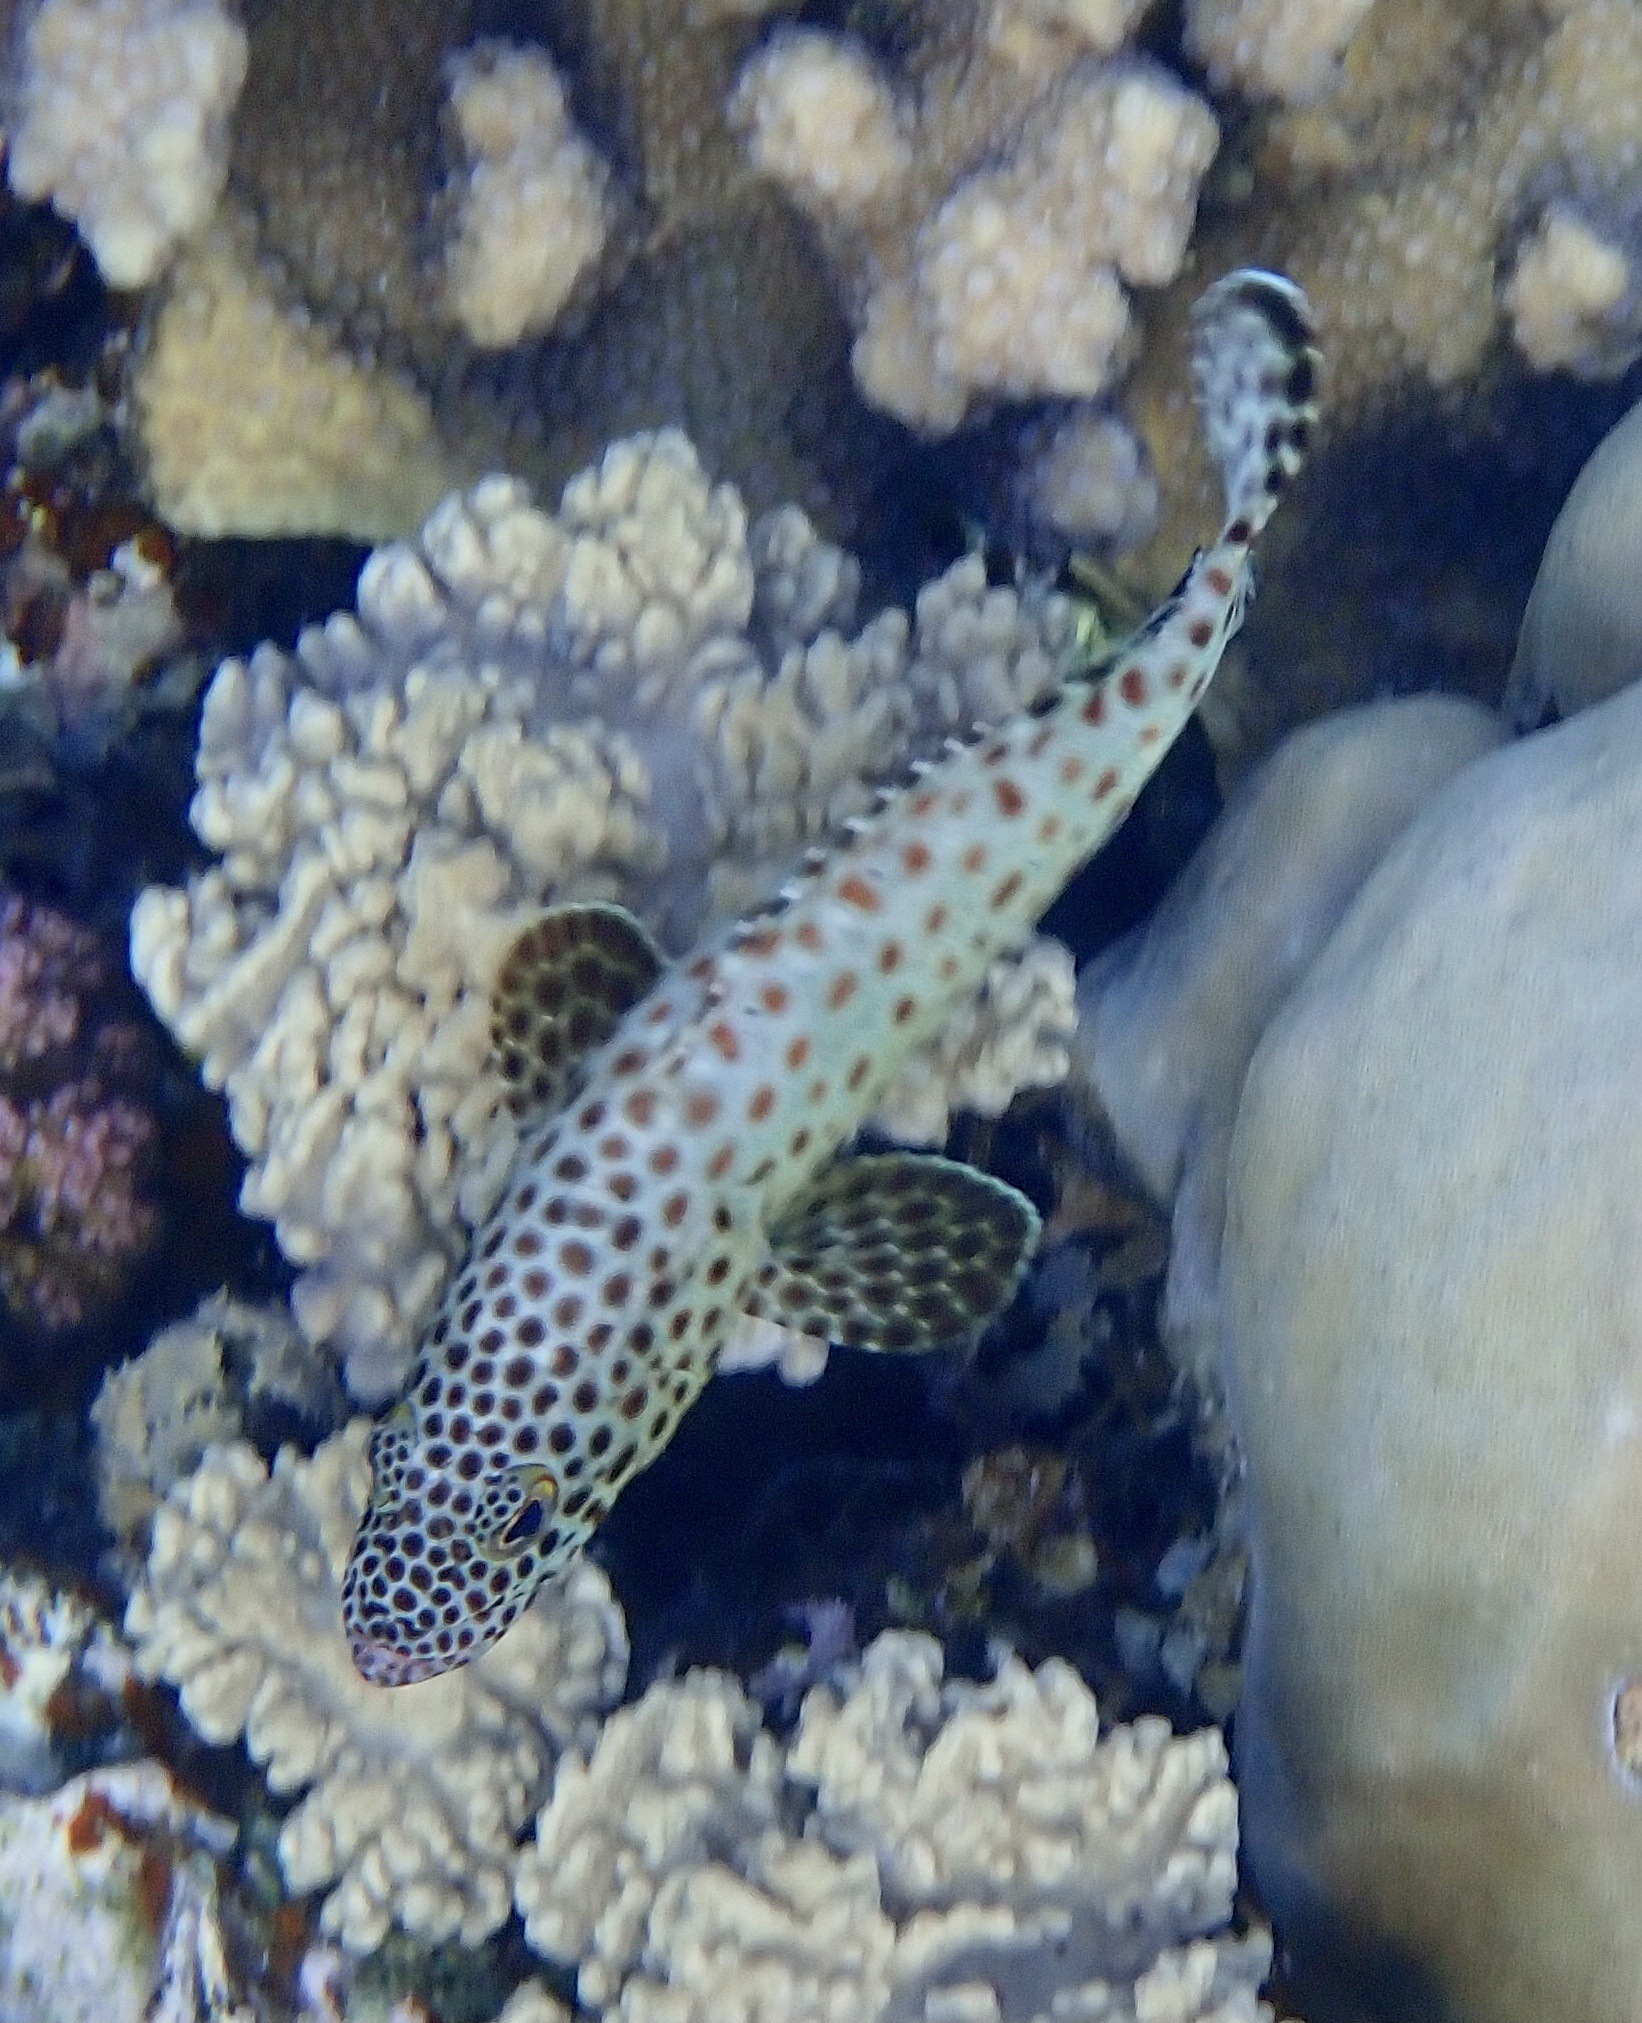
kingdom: Animalia
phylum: Chordata
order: Perciformes
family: Serranidae
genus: Epinephelus
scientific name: Epinephelus tauvina
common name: Greasy grouper
